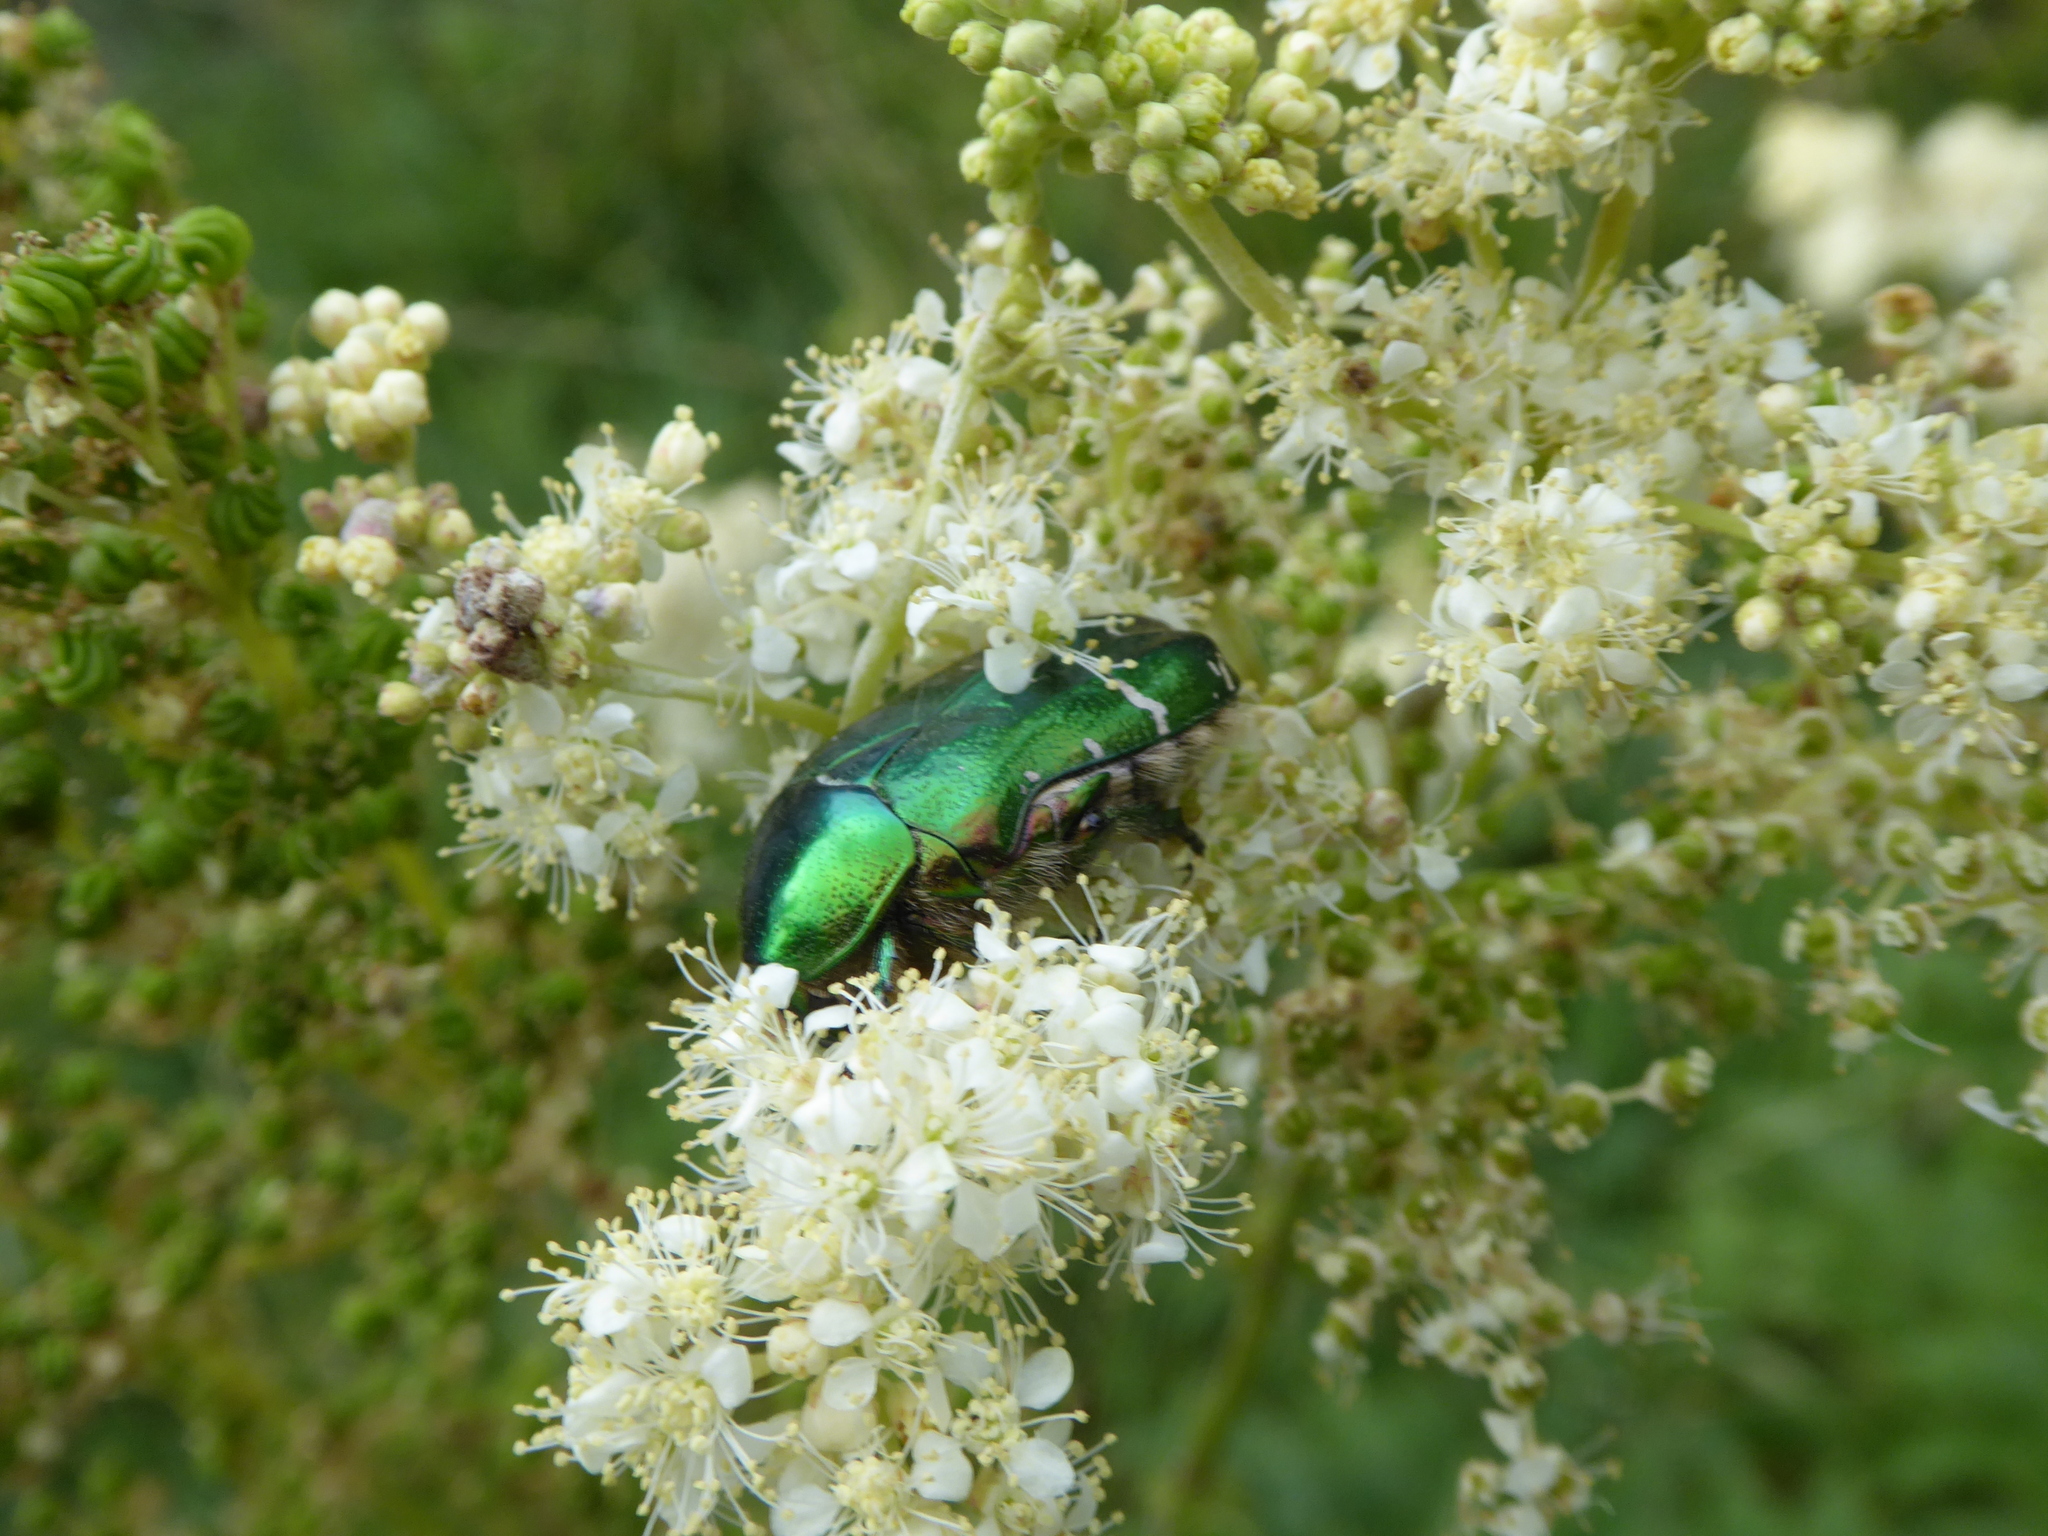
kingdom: Animalia
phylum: Arthropoda
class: Insecta
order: Coleoptera
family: Scarabaeidae
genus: Cetonia
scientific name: Cetonia aurata
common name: Rose chafer
